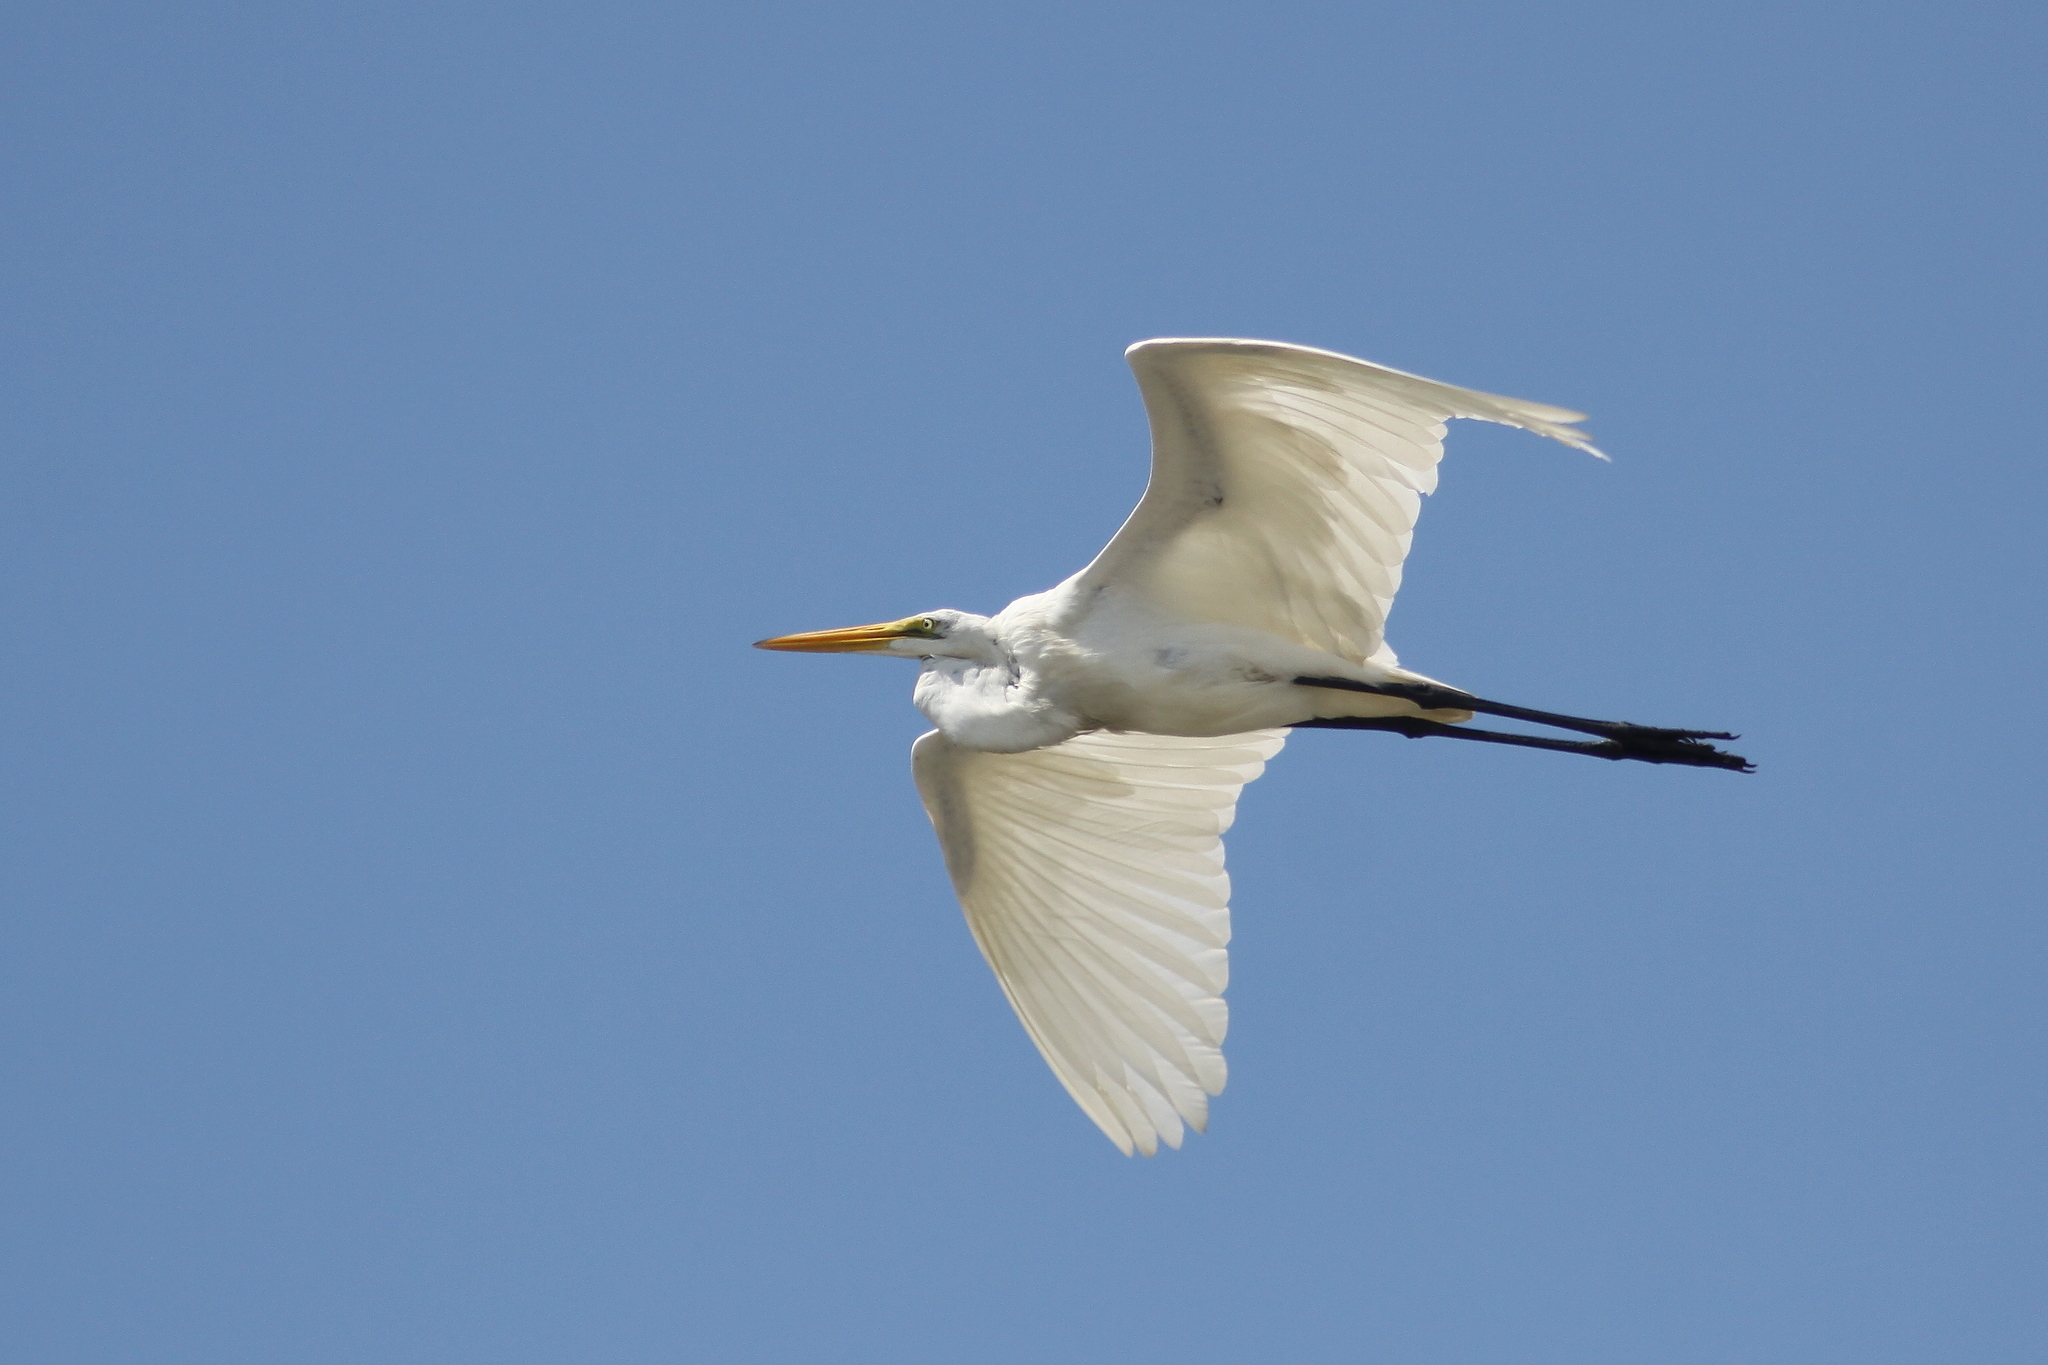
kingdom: Animalia
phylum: Chordata
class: Aves
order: Pelecaniformes
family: Ardeidae
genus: Ardea
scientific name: Ardea alba
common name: Great egret
